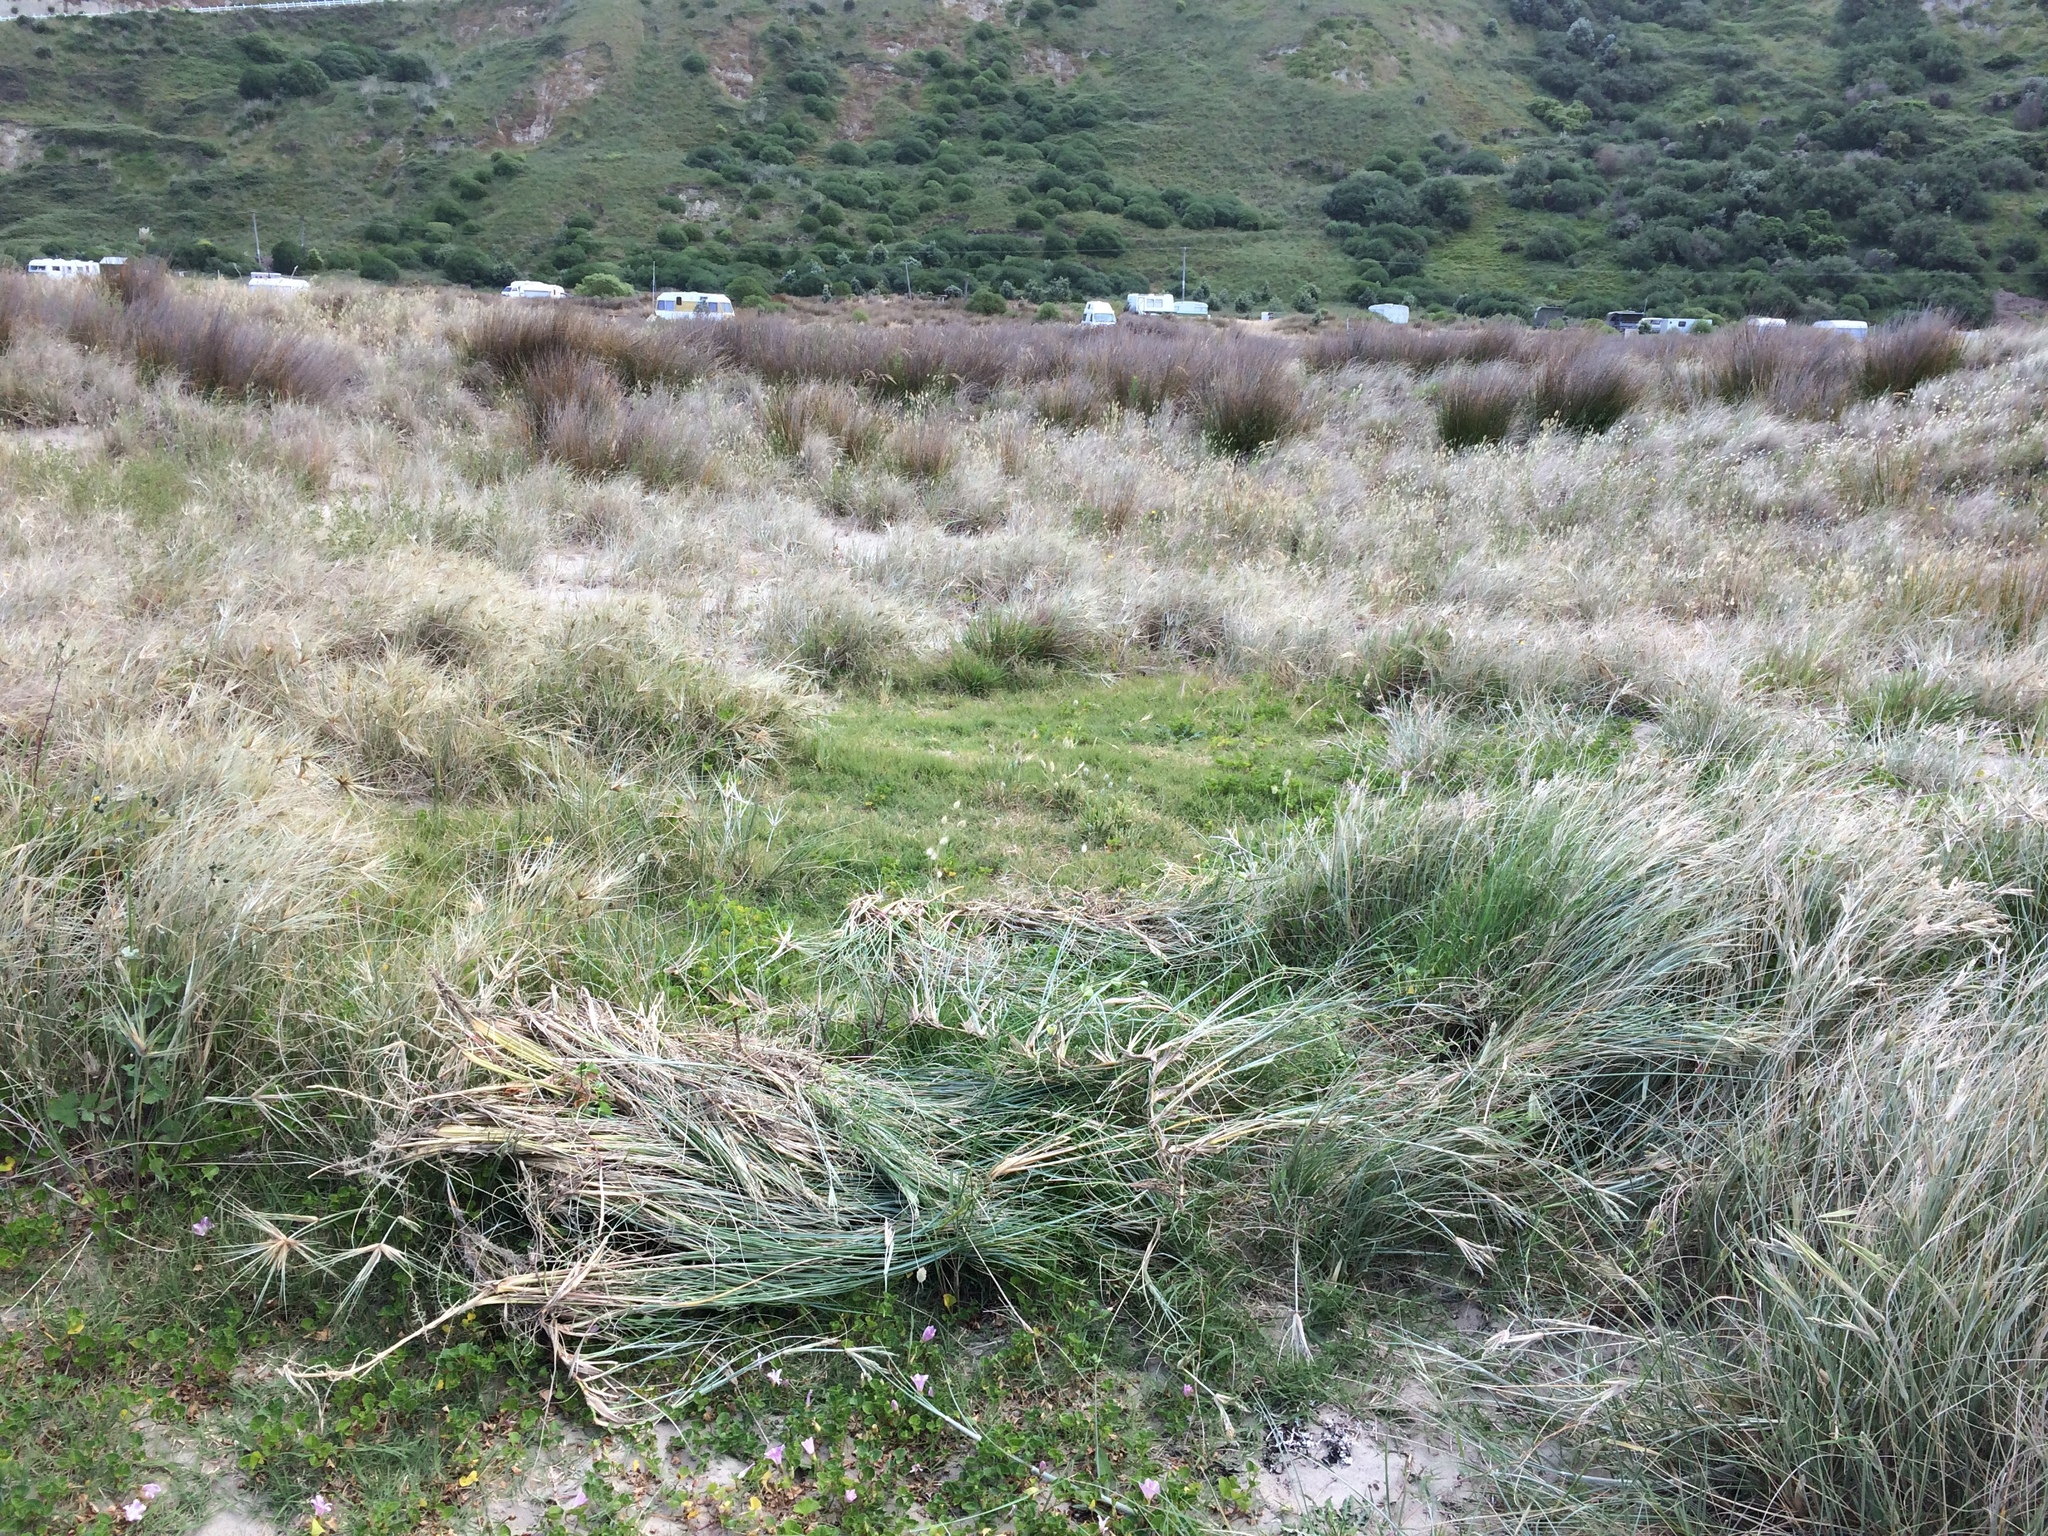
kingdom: Plantae
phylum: Tracheophyta
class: Liliopsida
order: Poales
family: Poaceae
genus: Calamagrostis
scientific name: Calamagrostis arenaria
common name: European beachgrass
